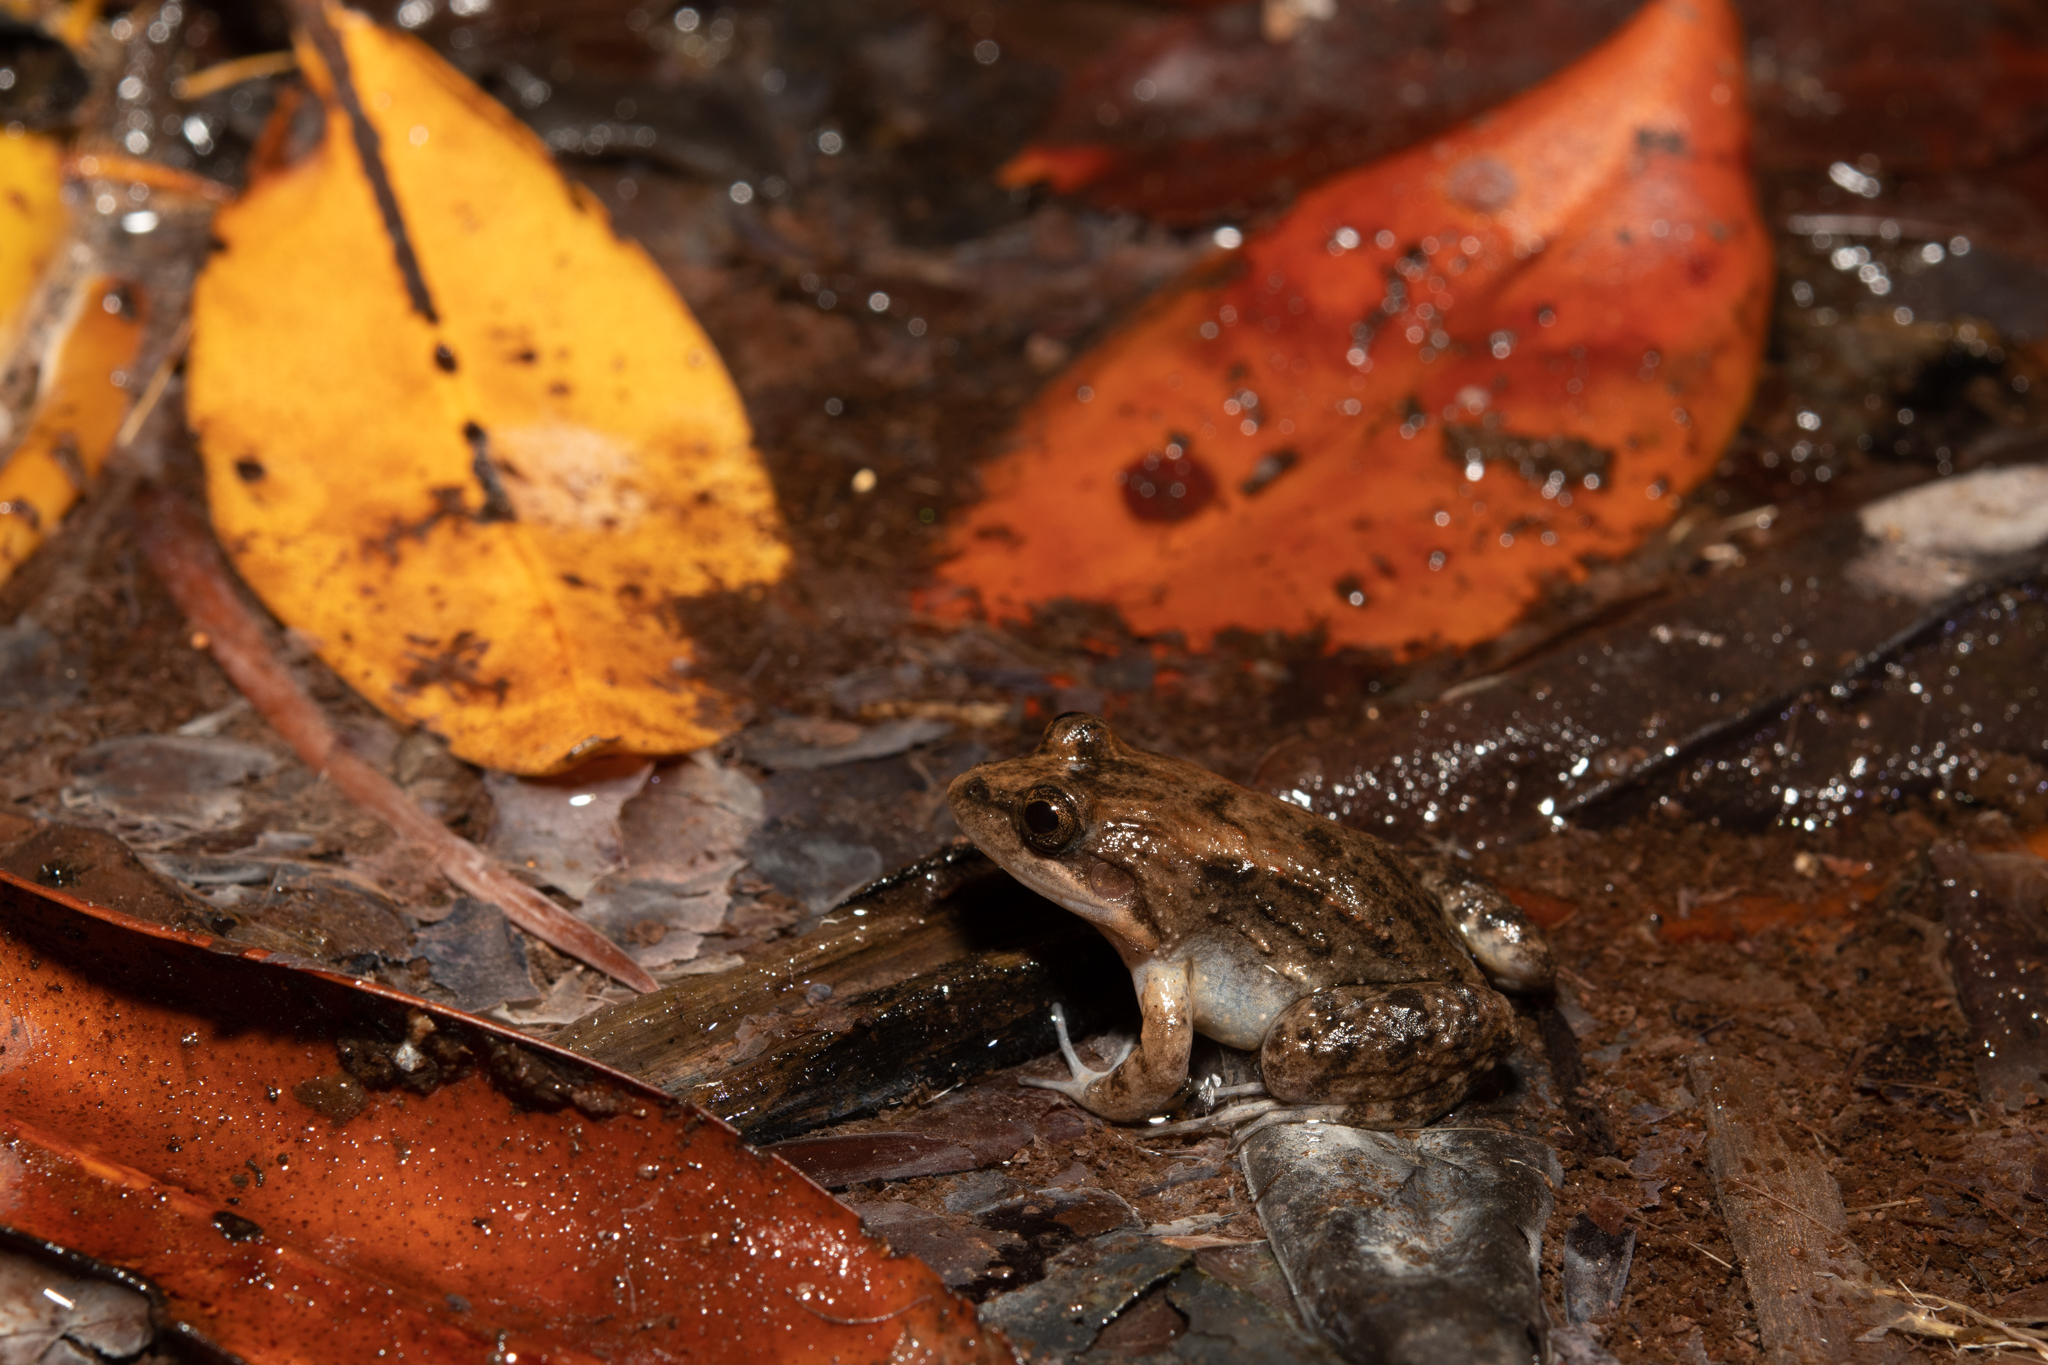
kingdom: Animalia
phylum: Chordata
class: Amphibia
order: Anura
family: Leptodactylidae
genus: Leptodactylus
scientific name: Leptodactylus melanonotus
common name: Fringe-toed foamfrog
